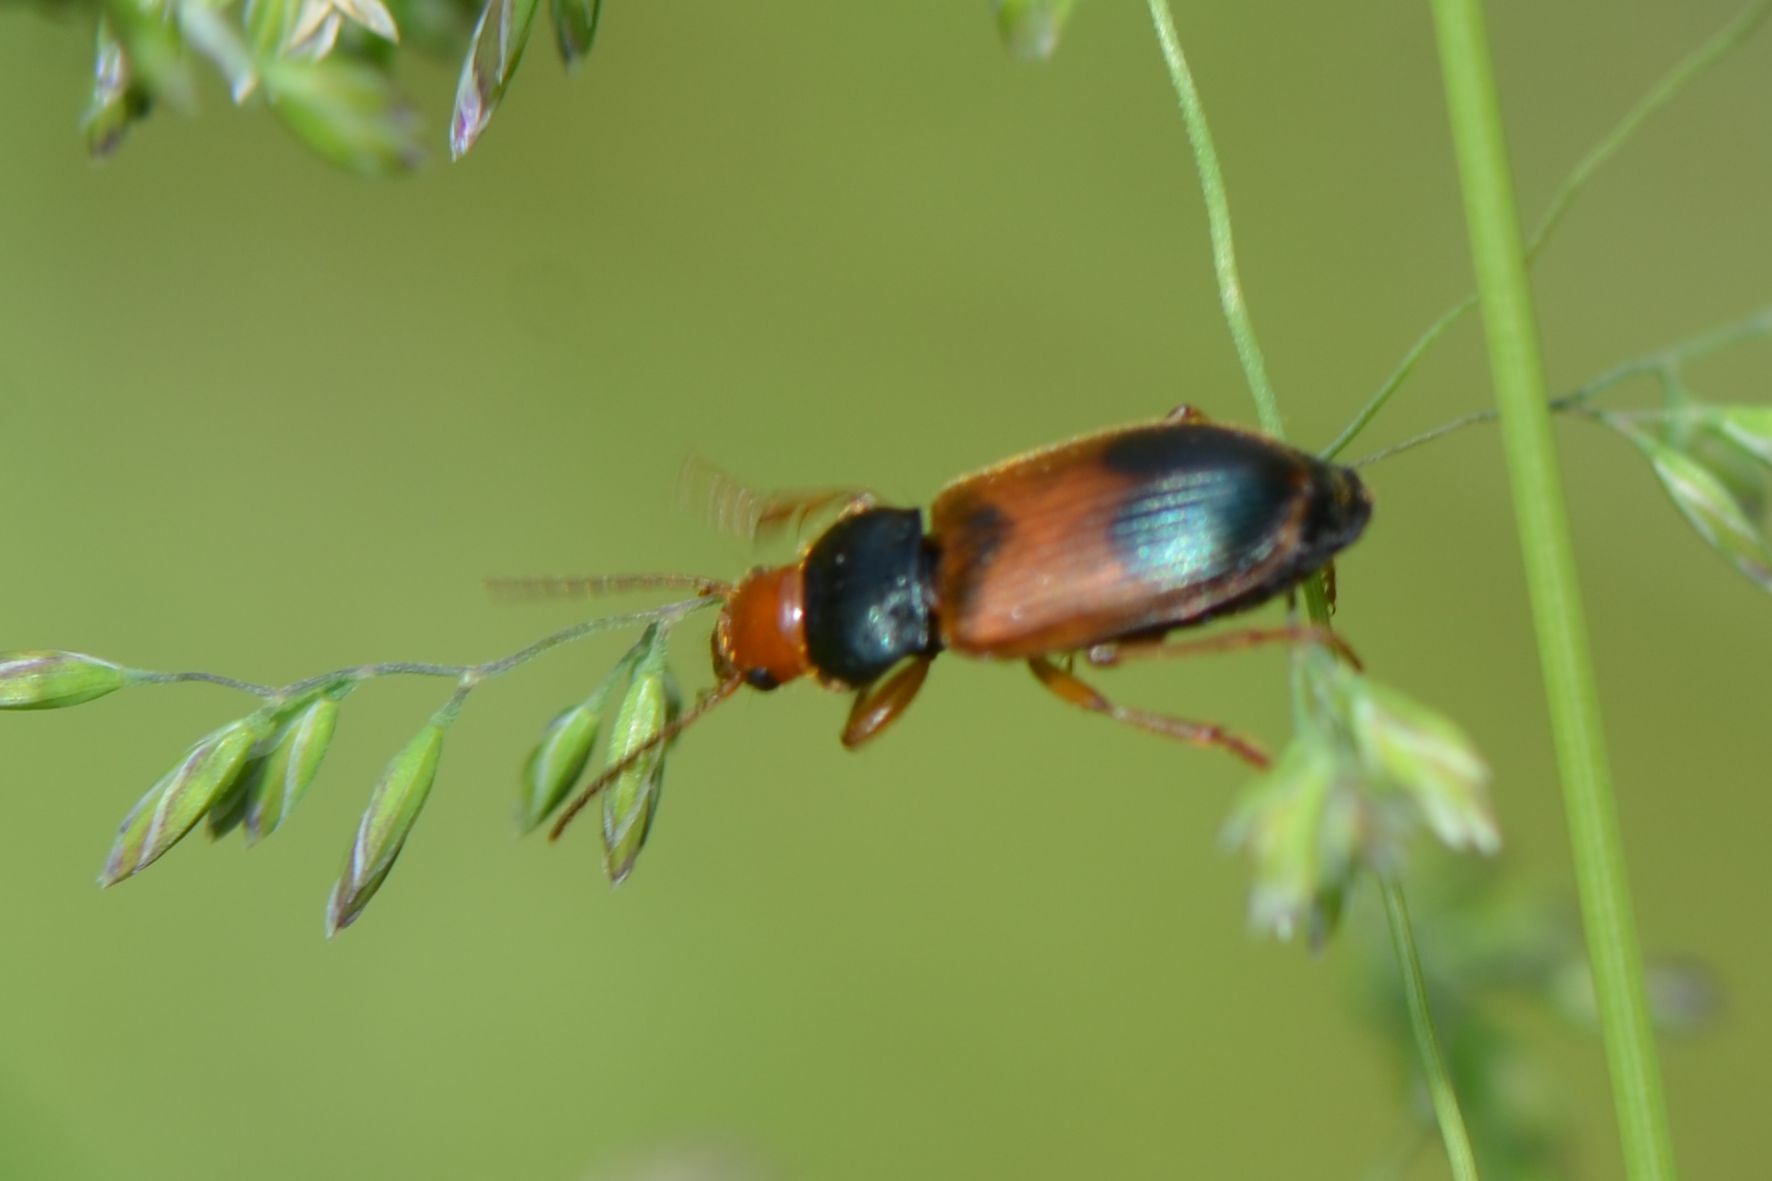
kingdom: Animalia
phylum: Arthropoda
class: Insecta
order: Coleoptera
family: Carabidae
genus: Diachromus
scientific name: Diachromus germanus
